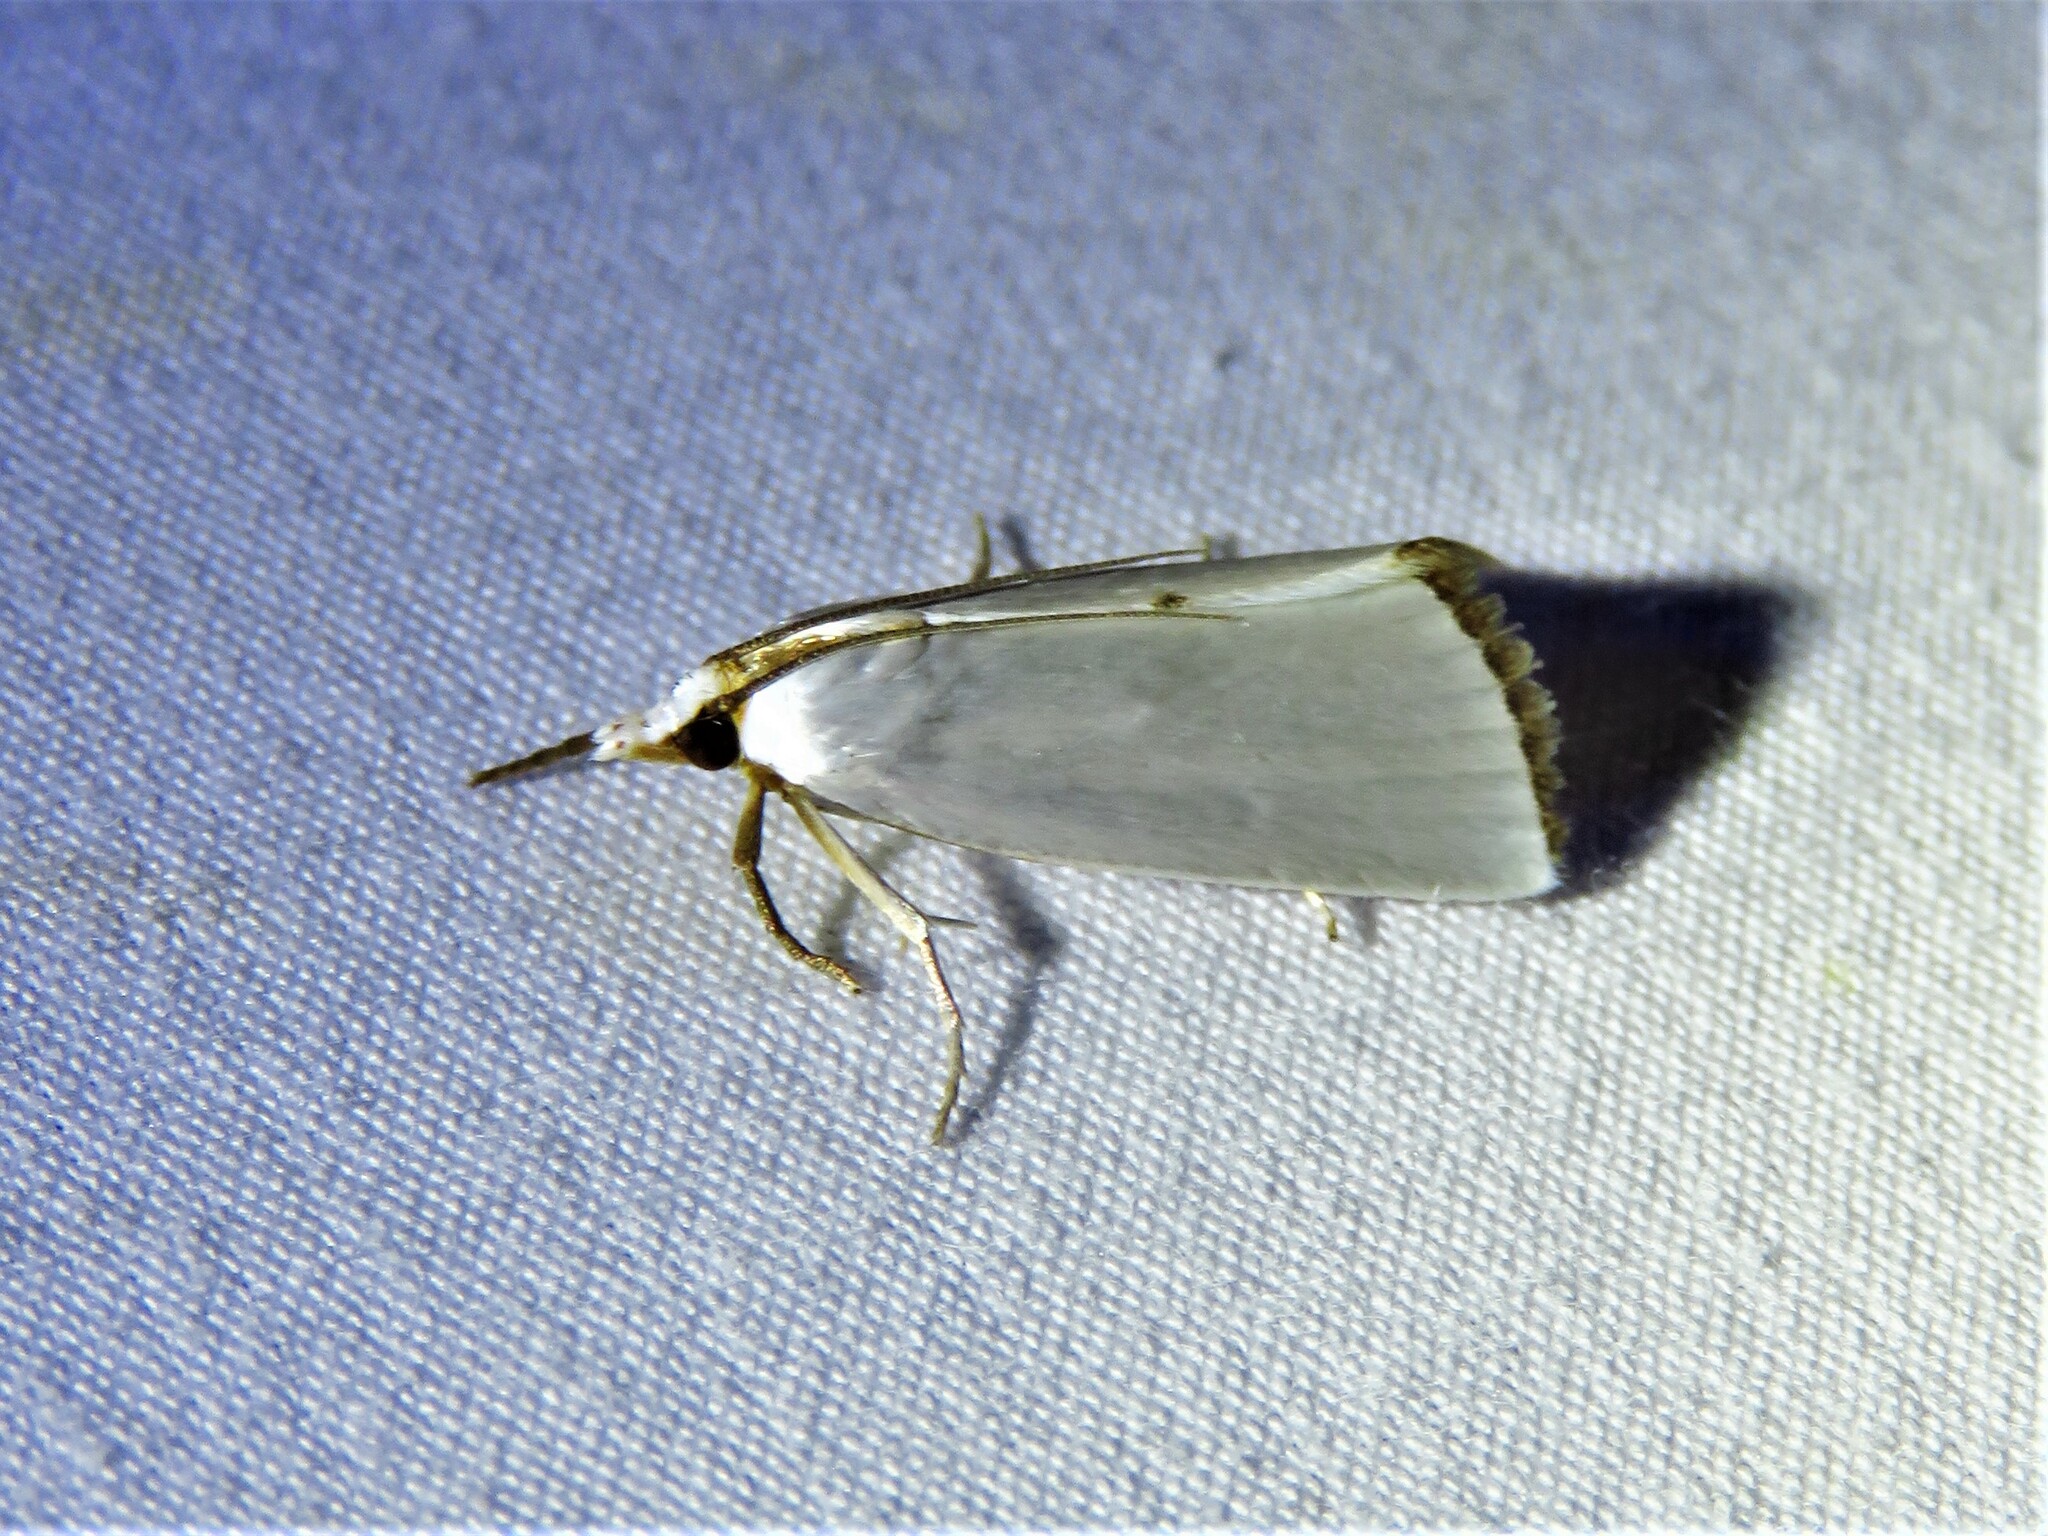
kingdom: Animalia
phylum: Arthropoda
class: Insecta
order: Lepidoptera
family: Crambidae
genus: Argyria
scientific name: Argyria nivalis
